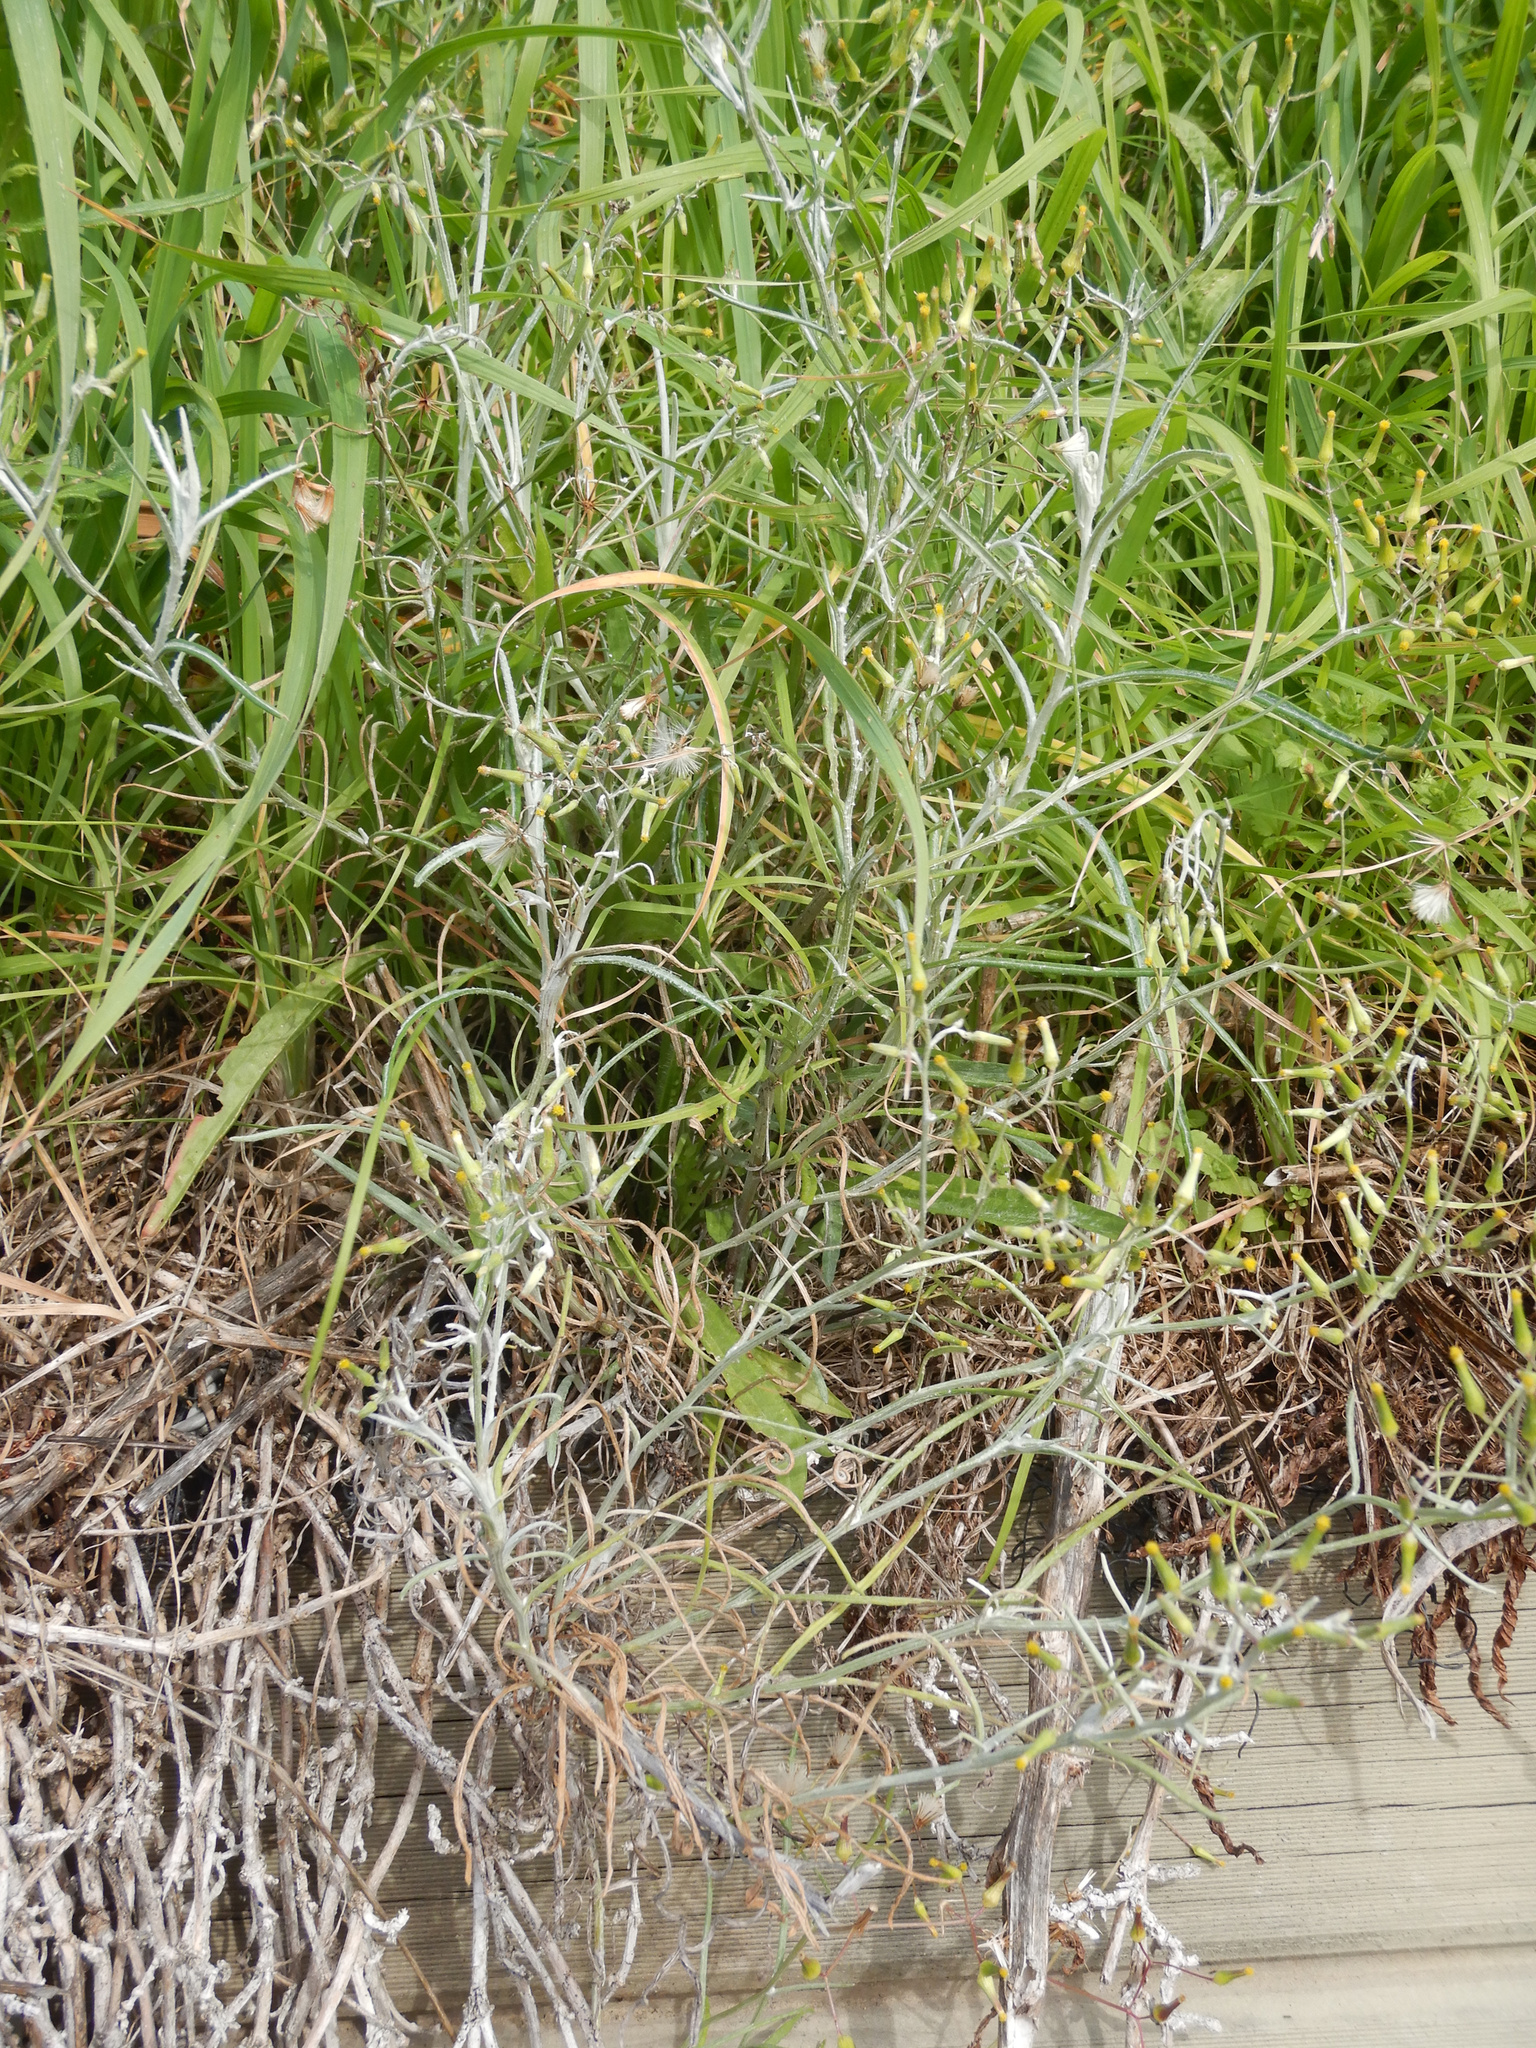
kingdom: Plantae
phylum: Tracheophyta
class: Magnoliopsida
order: Asterales
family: Asteraceae
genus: Senecio
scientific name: Senecio quadridentatus
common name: Cotton fireweed
